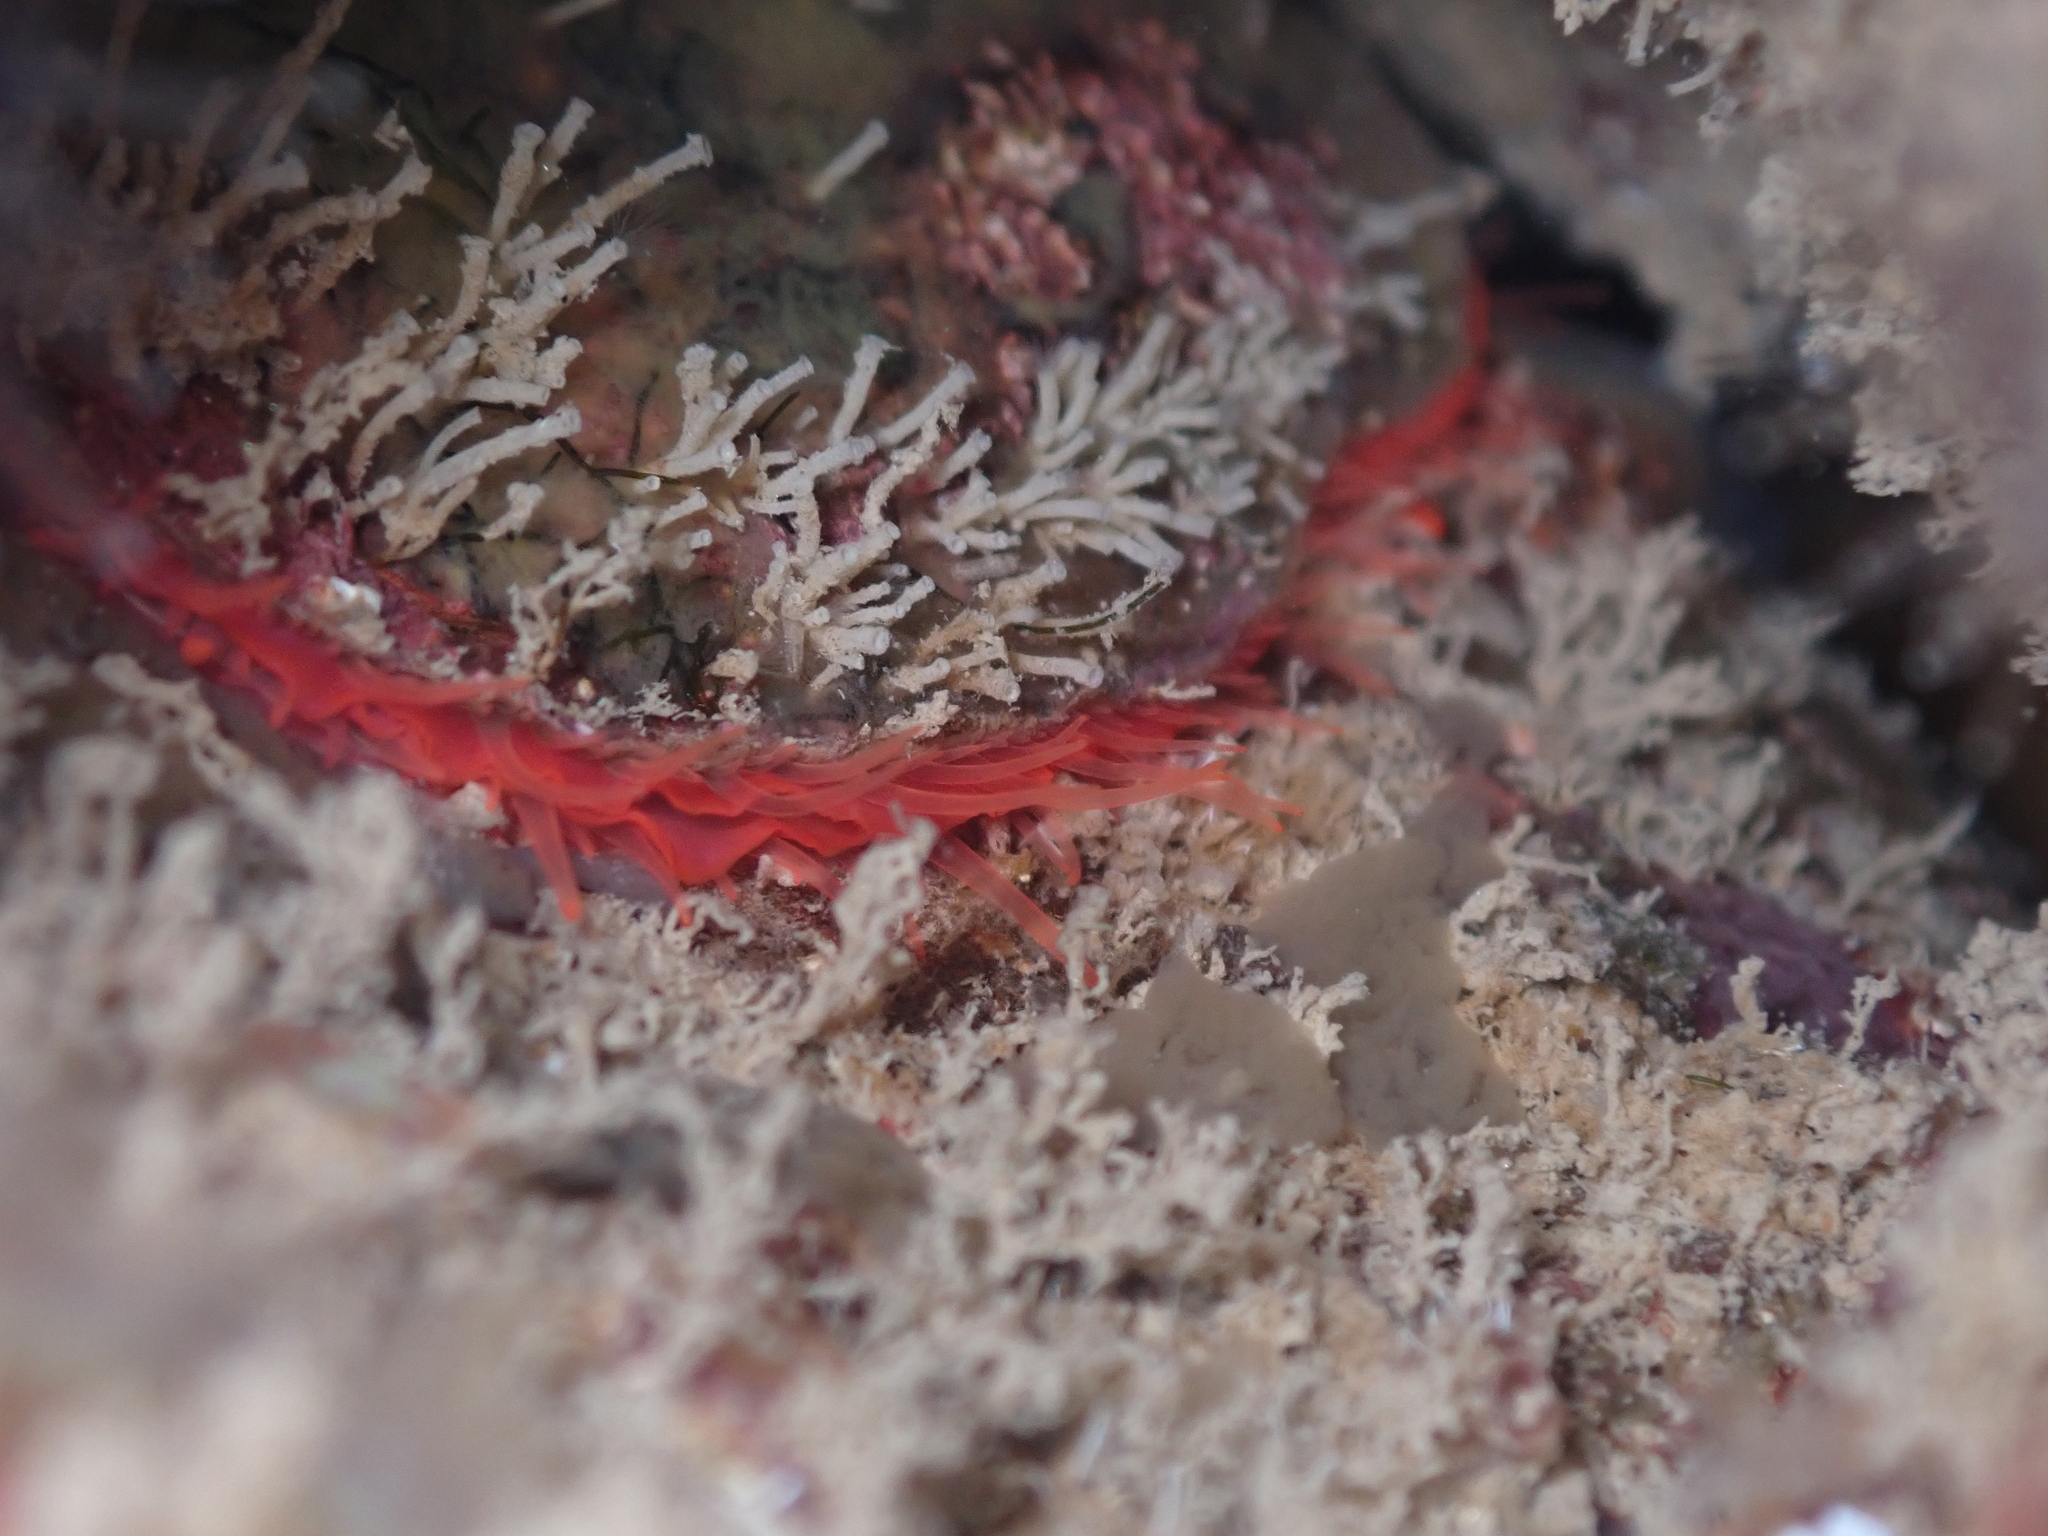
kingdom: Animalia
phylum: Mollusca
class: Bivalvia
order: Pectinida
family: Anomiidae
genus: Monia
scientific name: Monia zelandica
